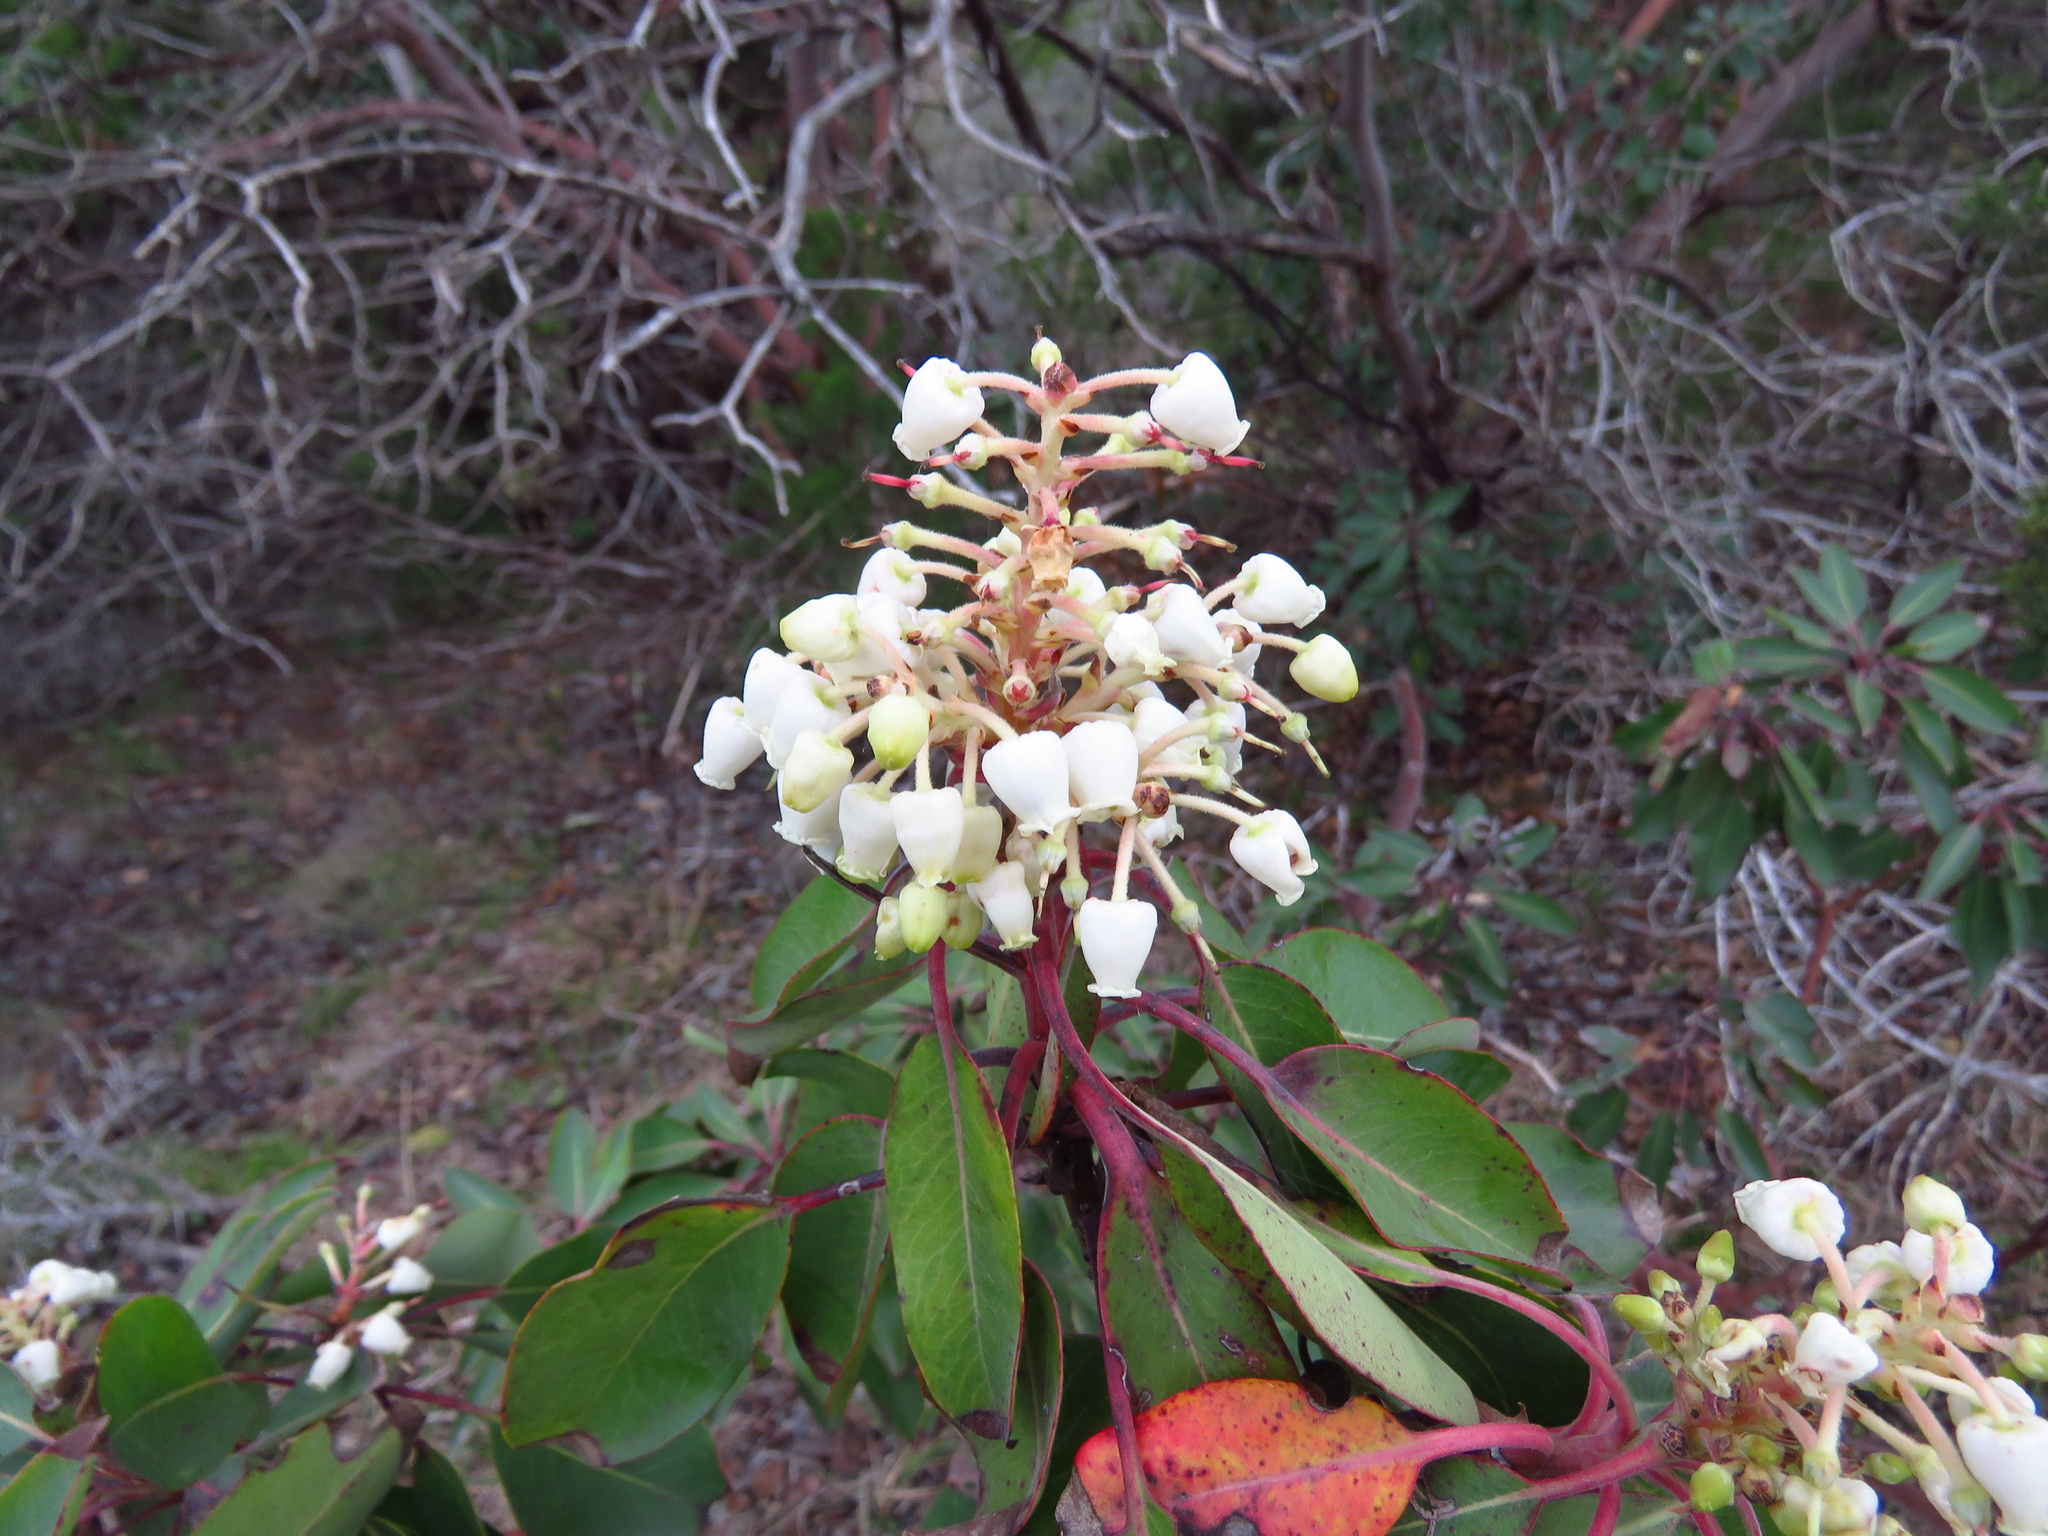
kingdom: Plantae
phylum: Tracheophyta
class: Magnoliopsida
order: Ericales
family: Ericaceae
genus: Arbutus
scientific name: Arbutus xalapensis
